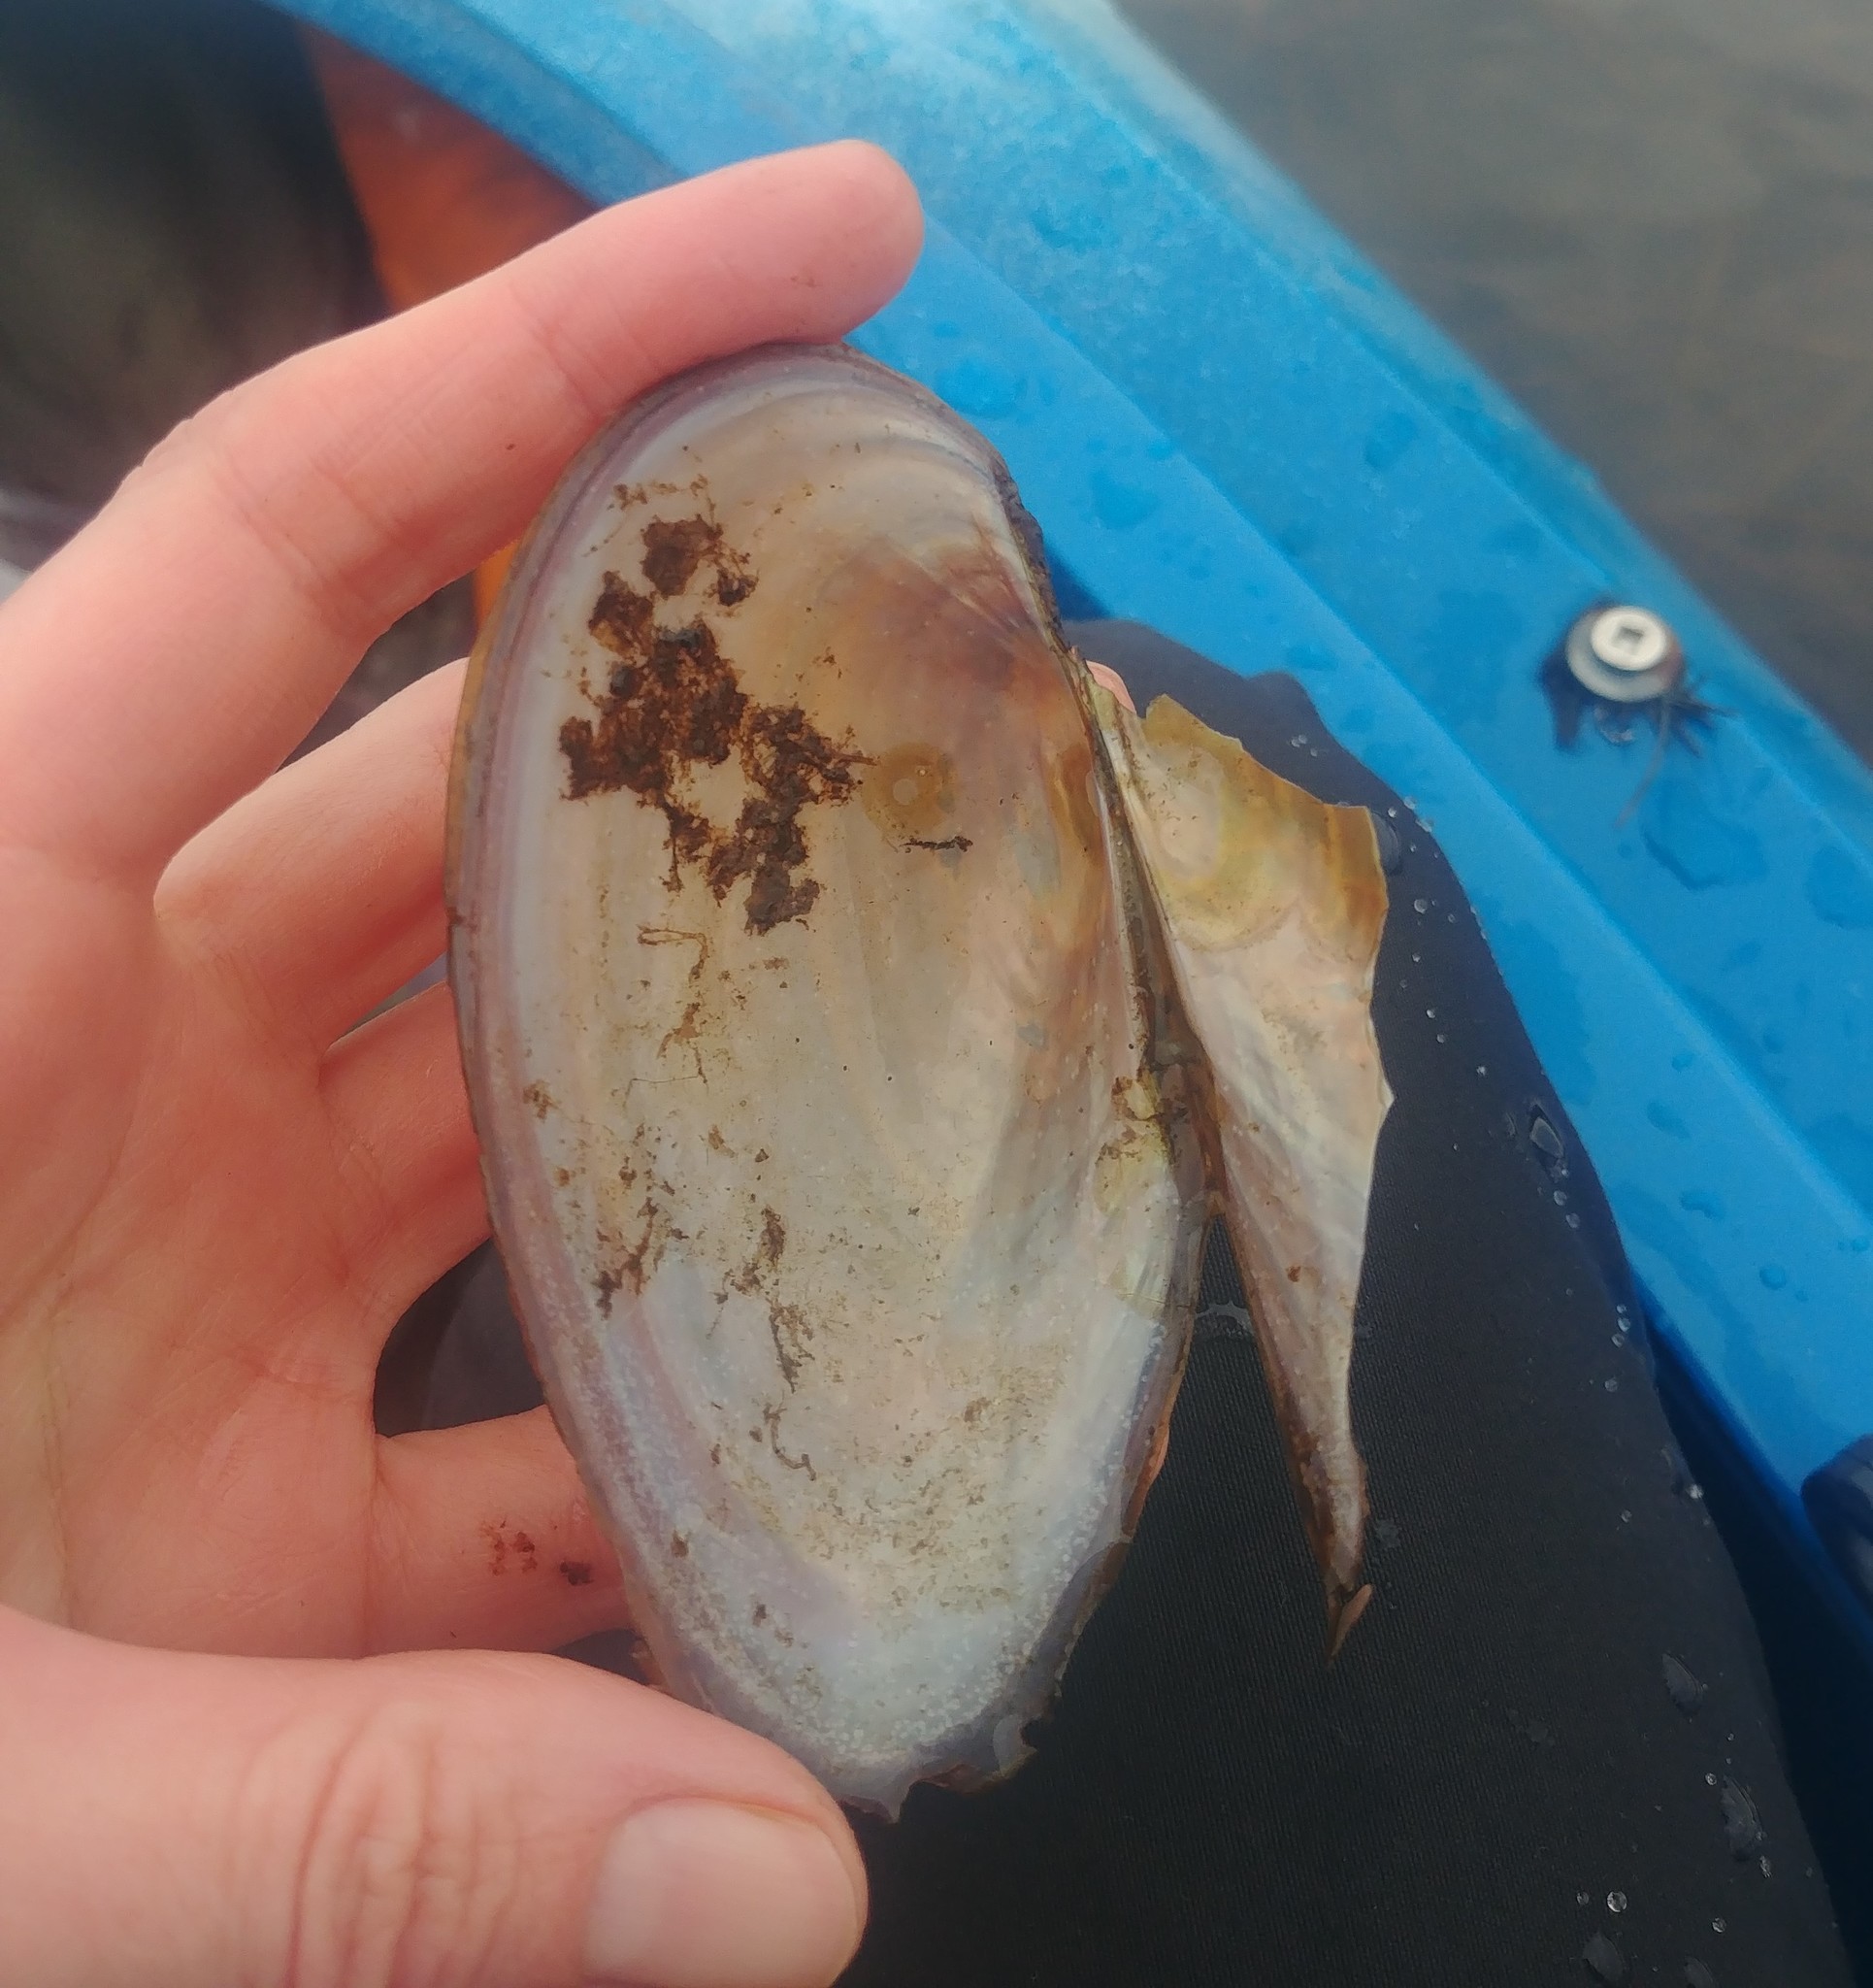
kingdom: Animalia
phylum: Mollusca
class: Bivalvia
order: Unionida
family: Unionidae
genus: Pyganodon
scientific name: Pyganodon cataracta
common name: Eastern floater
